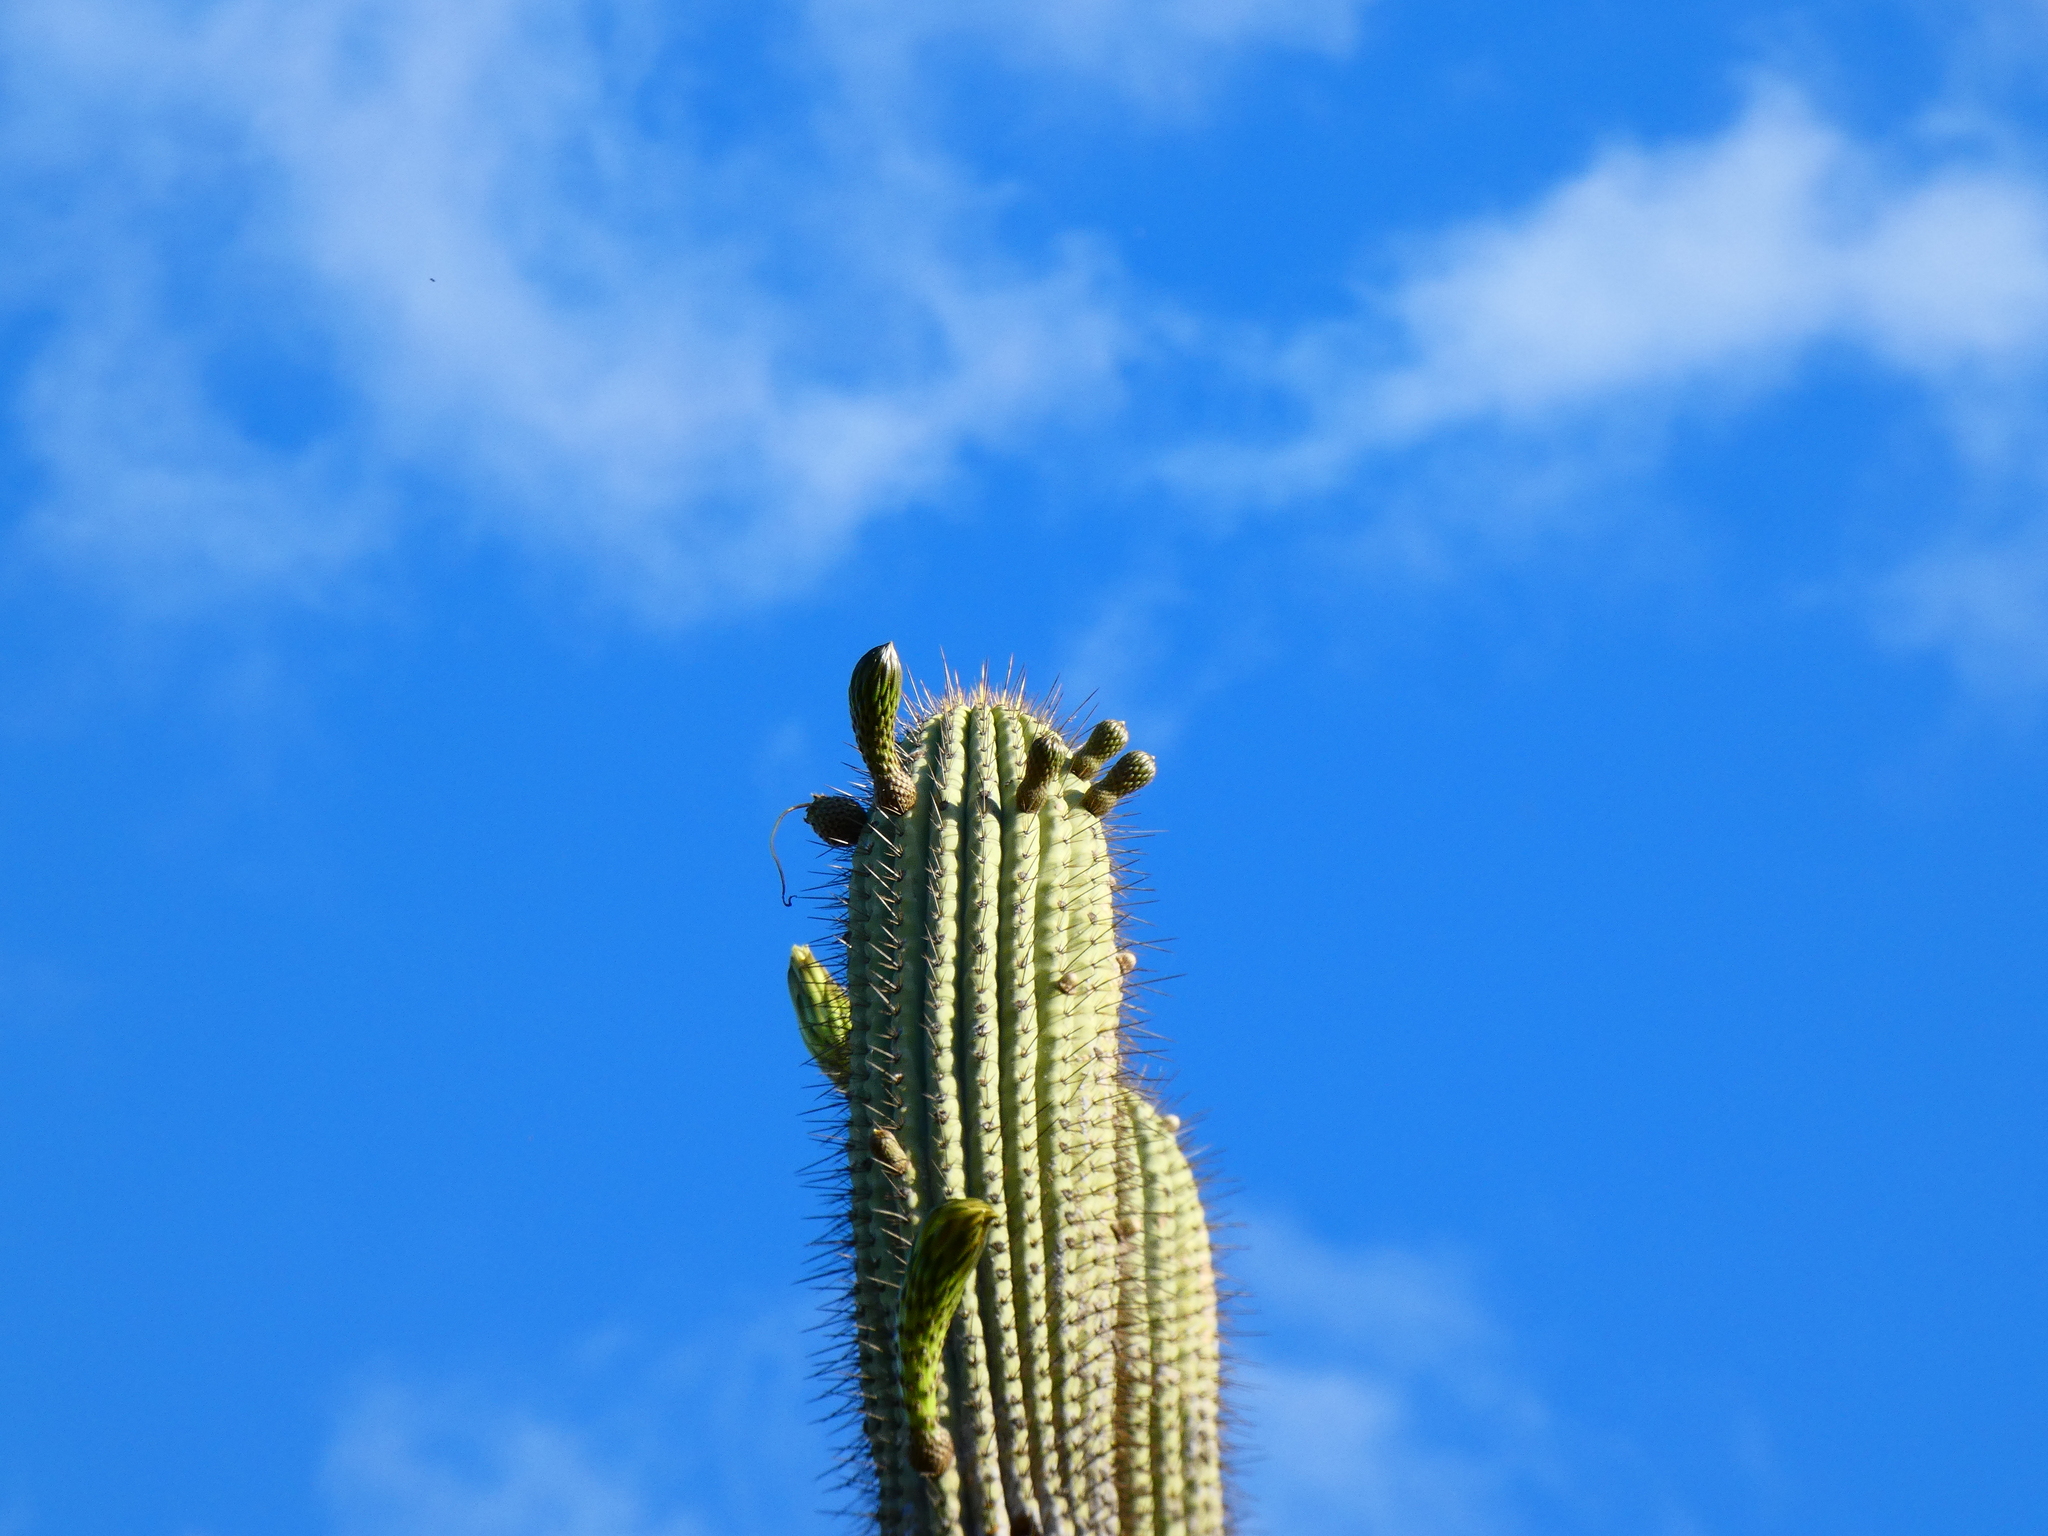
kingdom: Plantae
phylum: Tracheophyta
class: Magnoliopsida
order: Caryophyllales
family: Cactaceae
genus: Leucostele
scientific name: Leucostele chiloensis
